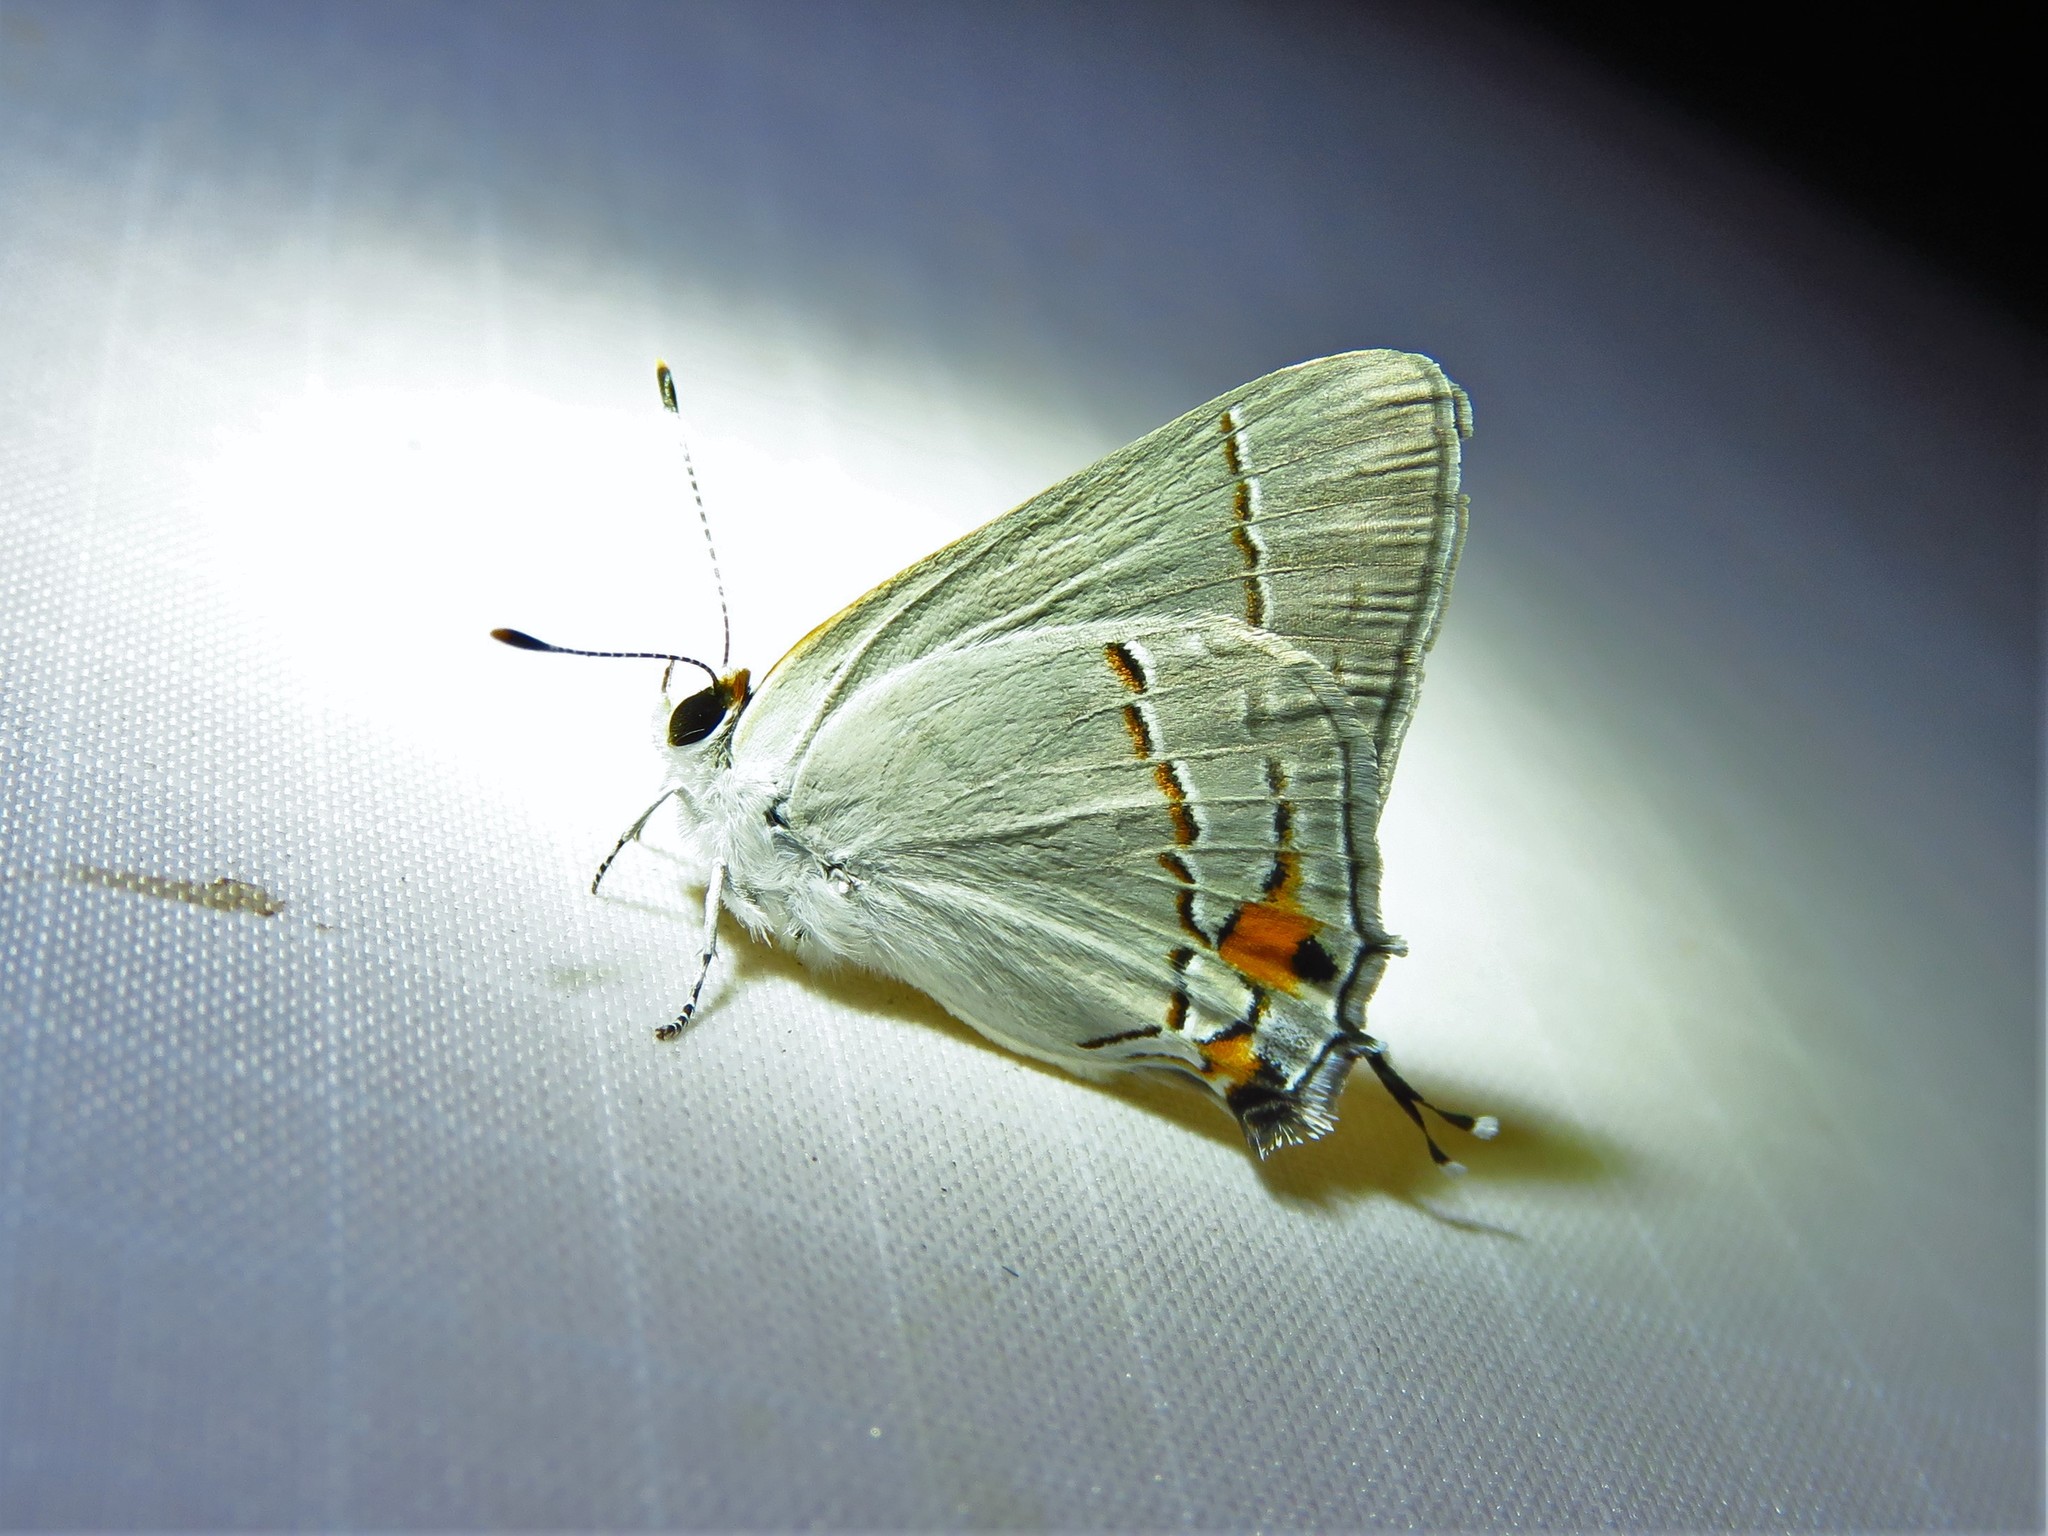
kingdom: Animalia
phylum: Arthropoda
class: Insecta
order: Lepidoptera
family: Lycaenidae
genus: Strymon
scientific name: Strymon melinus
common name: Gray hairstreak
